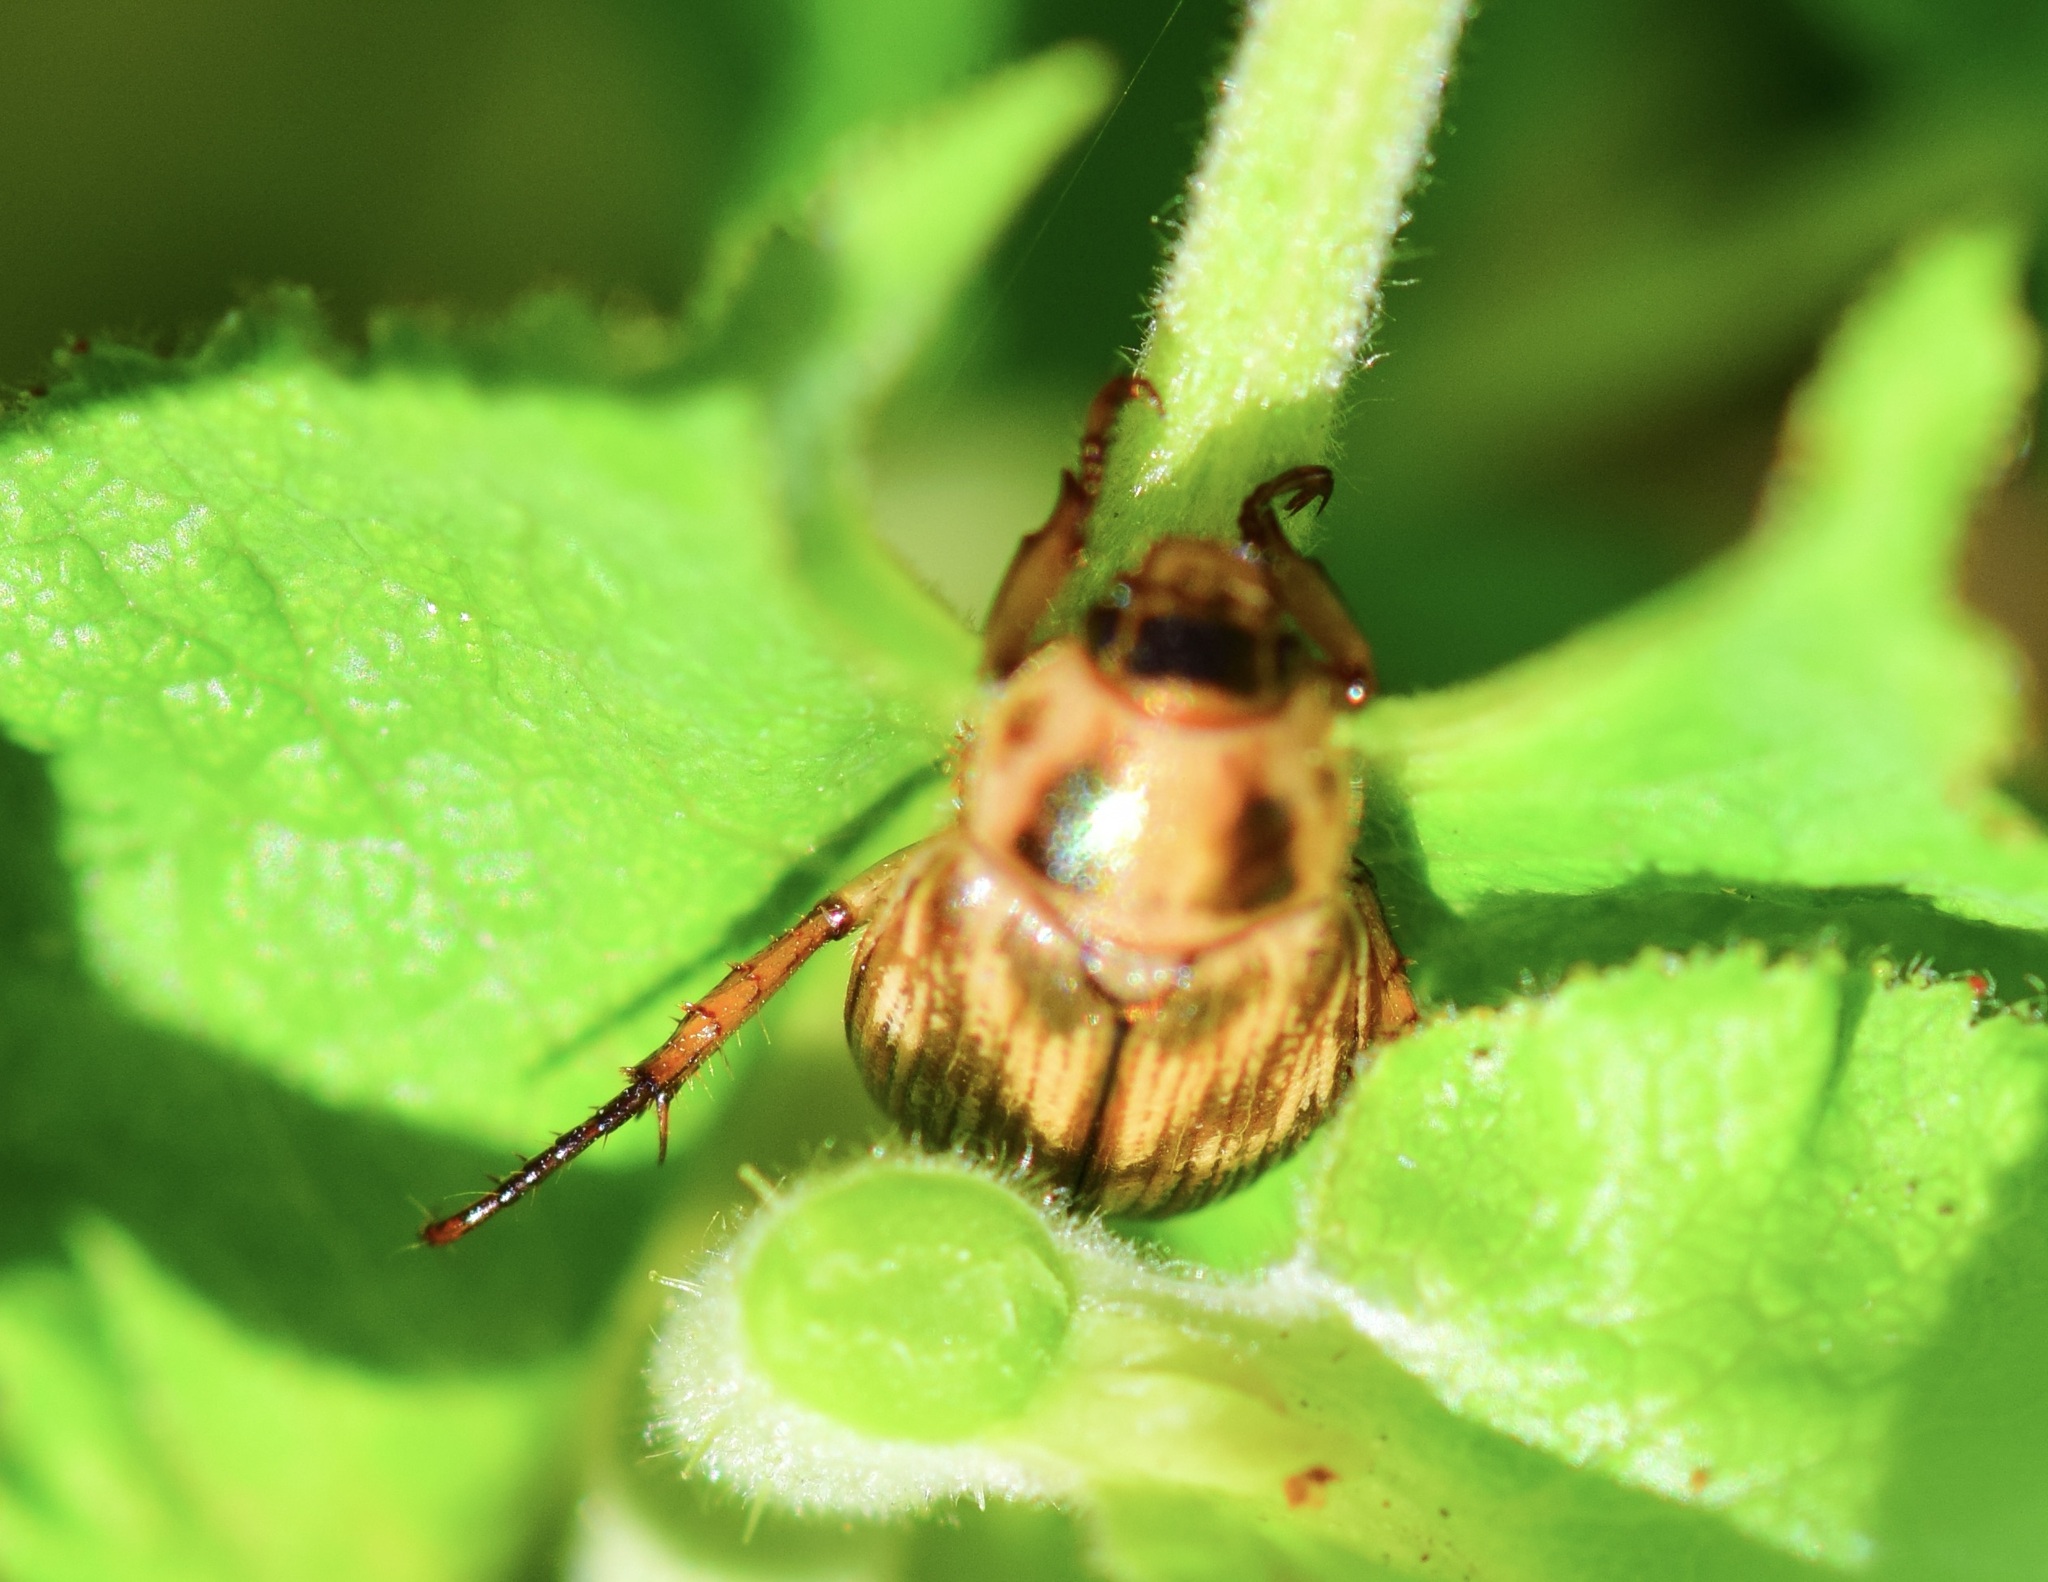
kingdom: Animalia
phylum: Arthropoda
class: Insecta
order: Coleoptera
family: Scarabaeidae
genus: Exomala
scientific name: Exomala orientalis
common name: Oriental beetle
